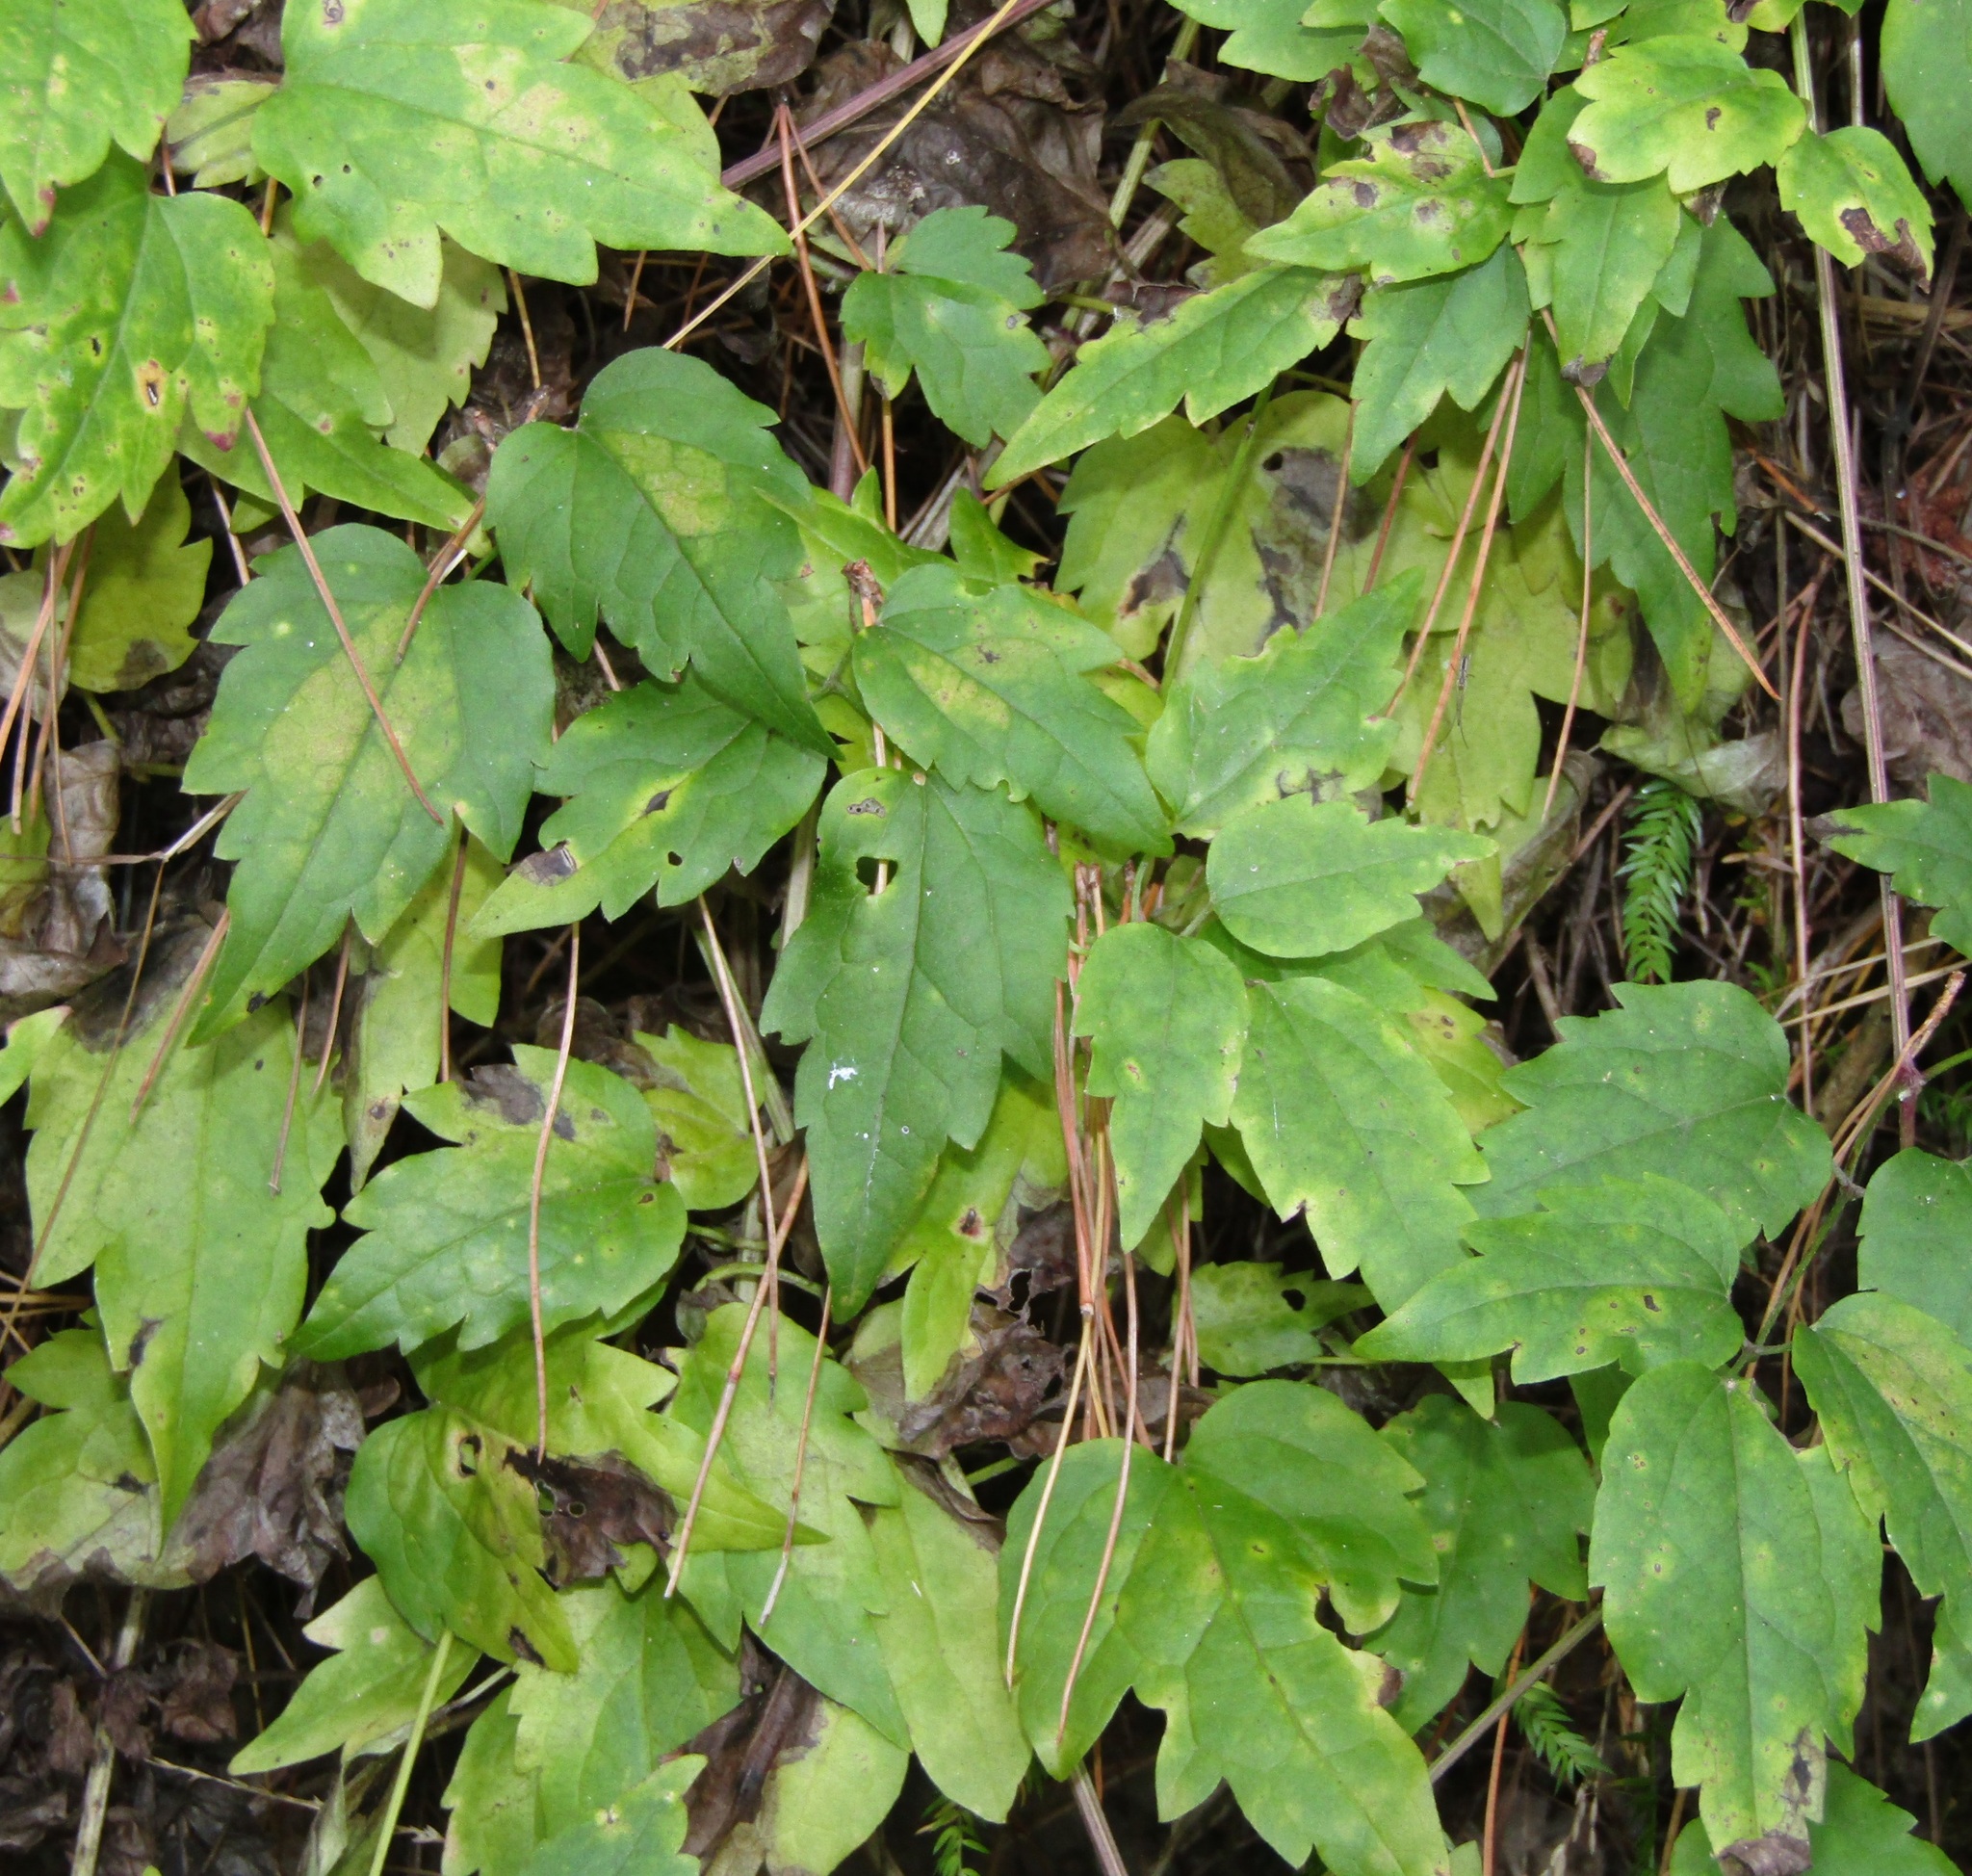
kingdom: Plantae
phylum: Tracheophyta
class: Magnoliopsida
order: Ranunculales
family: Ranunculaceae
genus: Clematis
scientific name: Clematis vitalba
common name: Evergreen clematis
